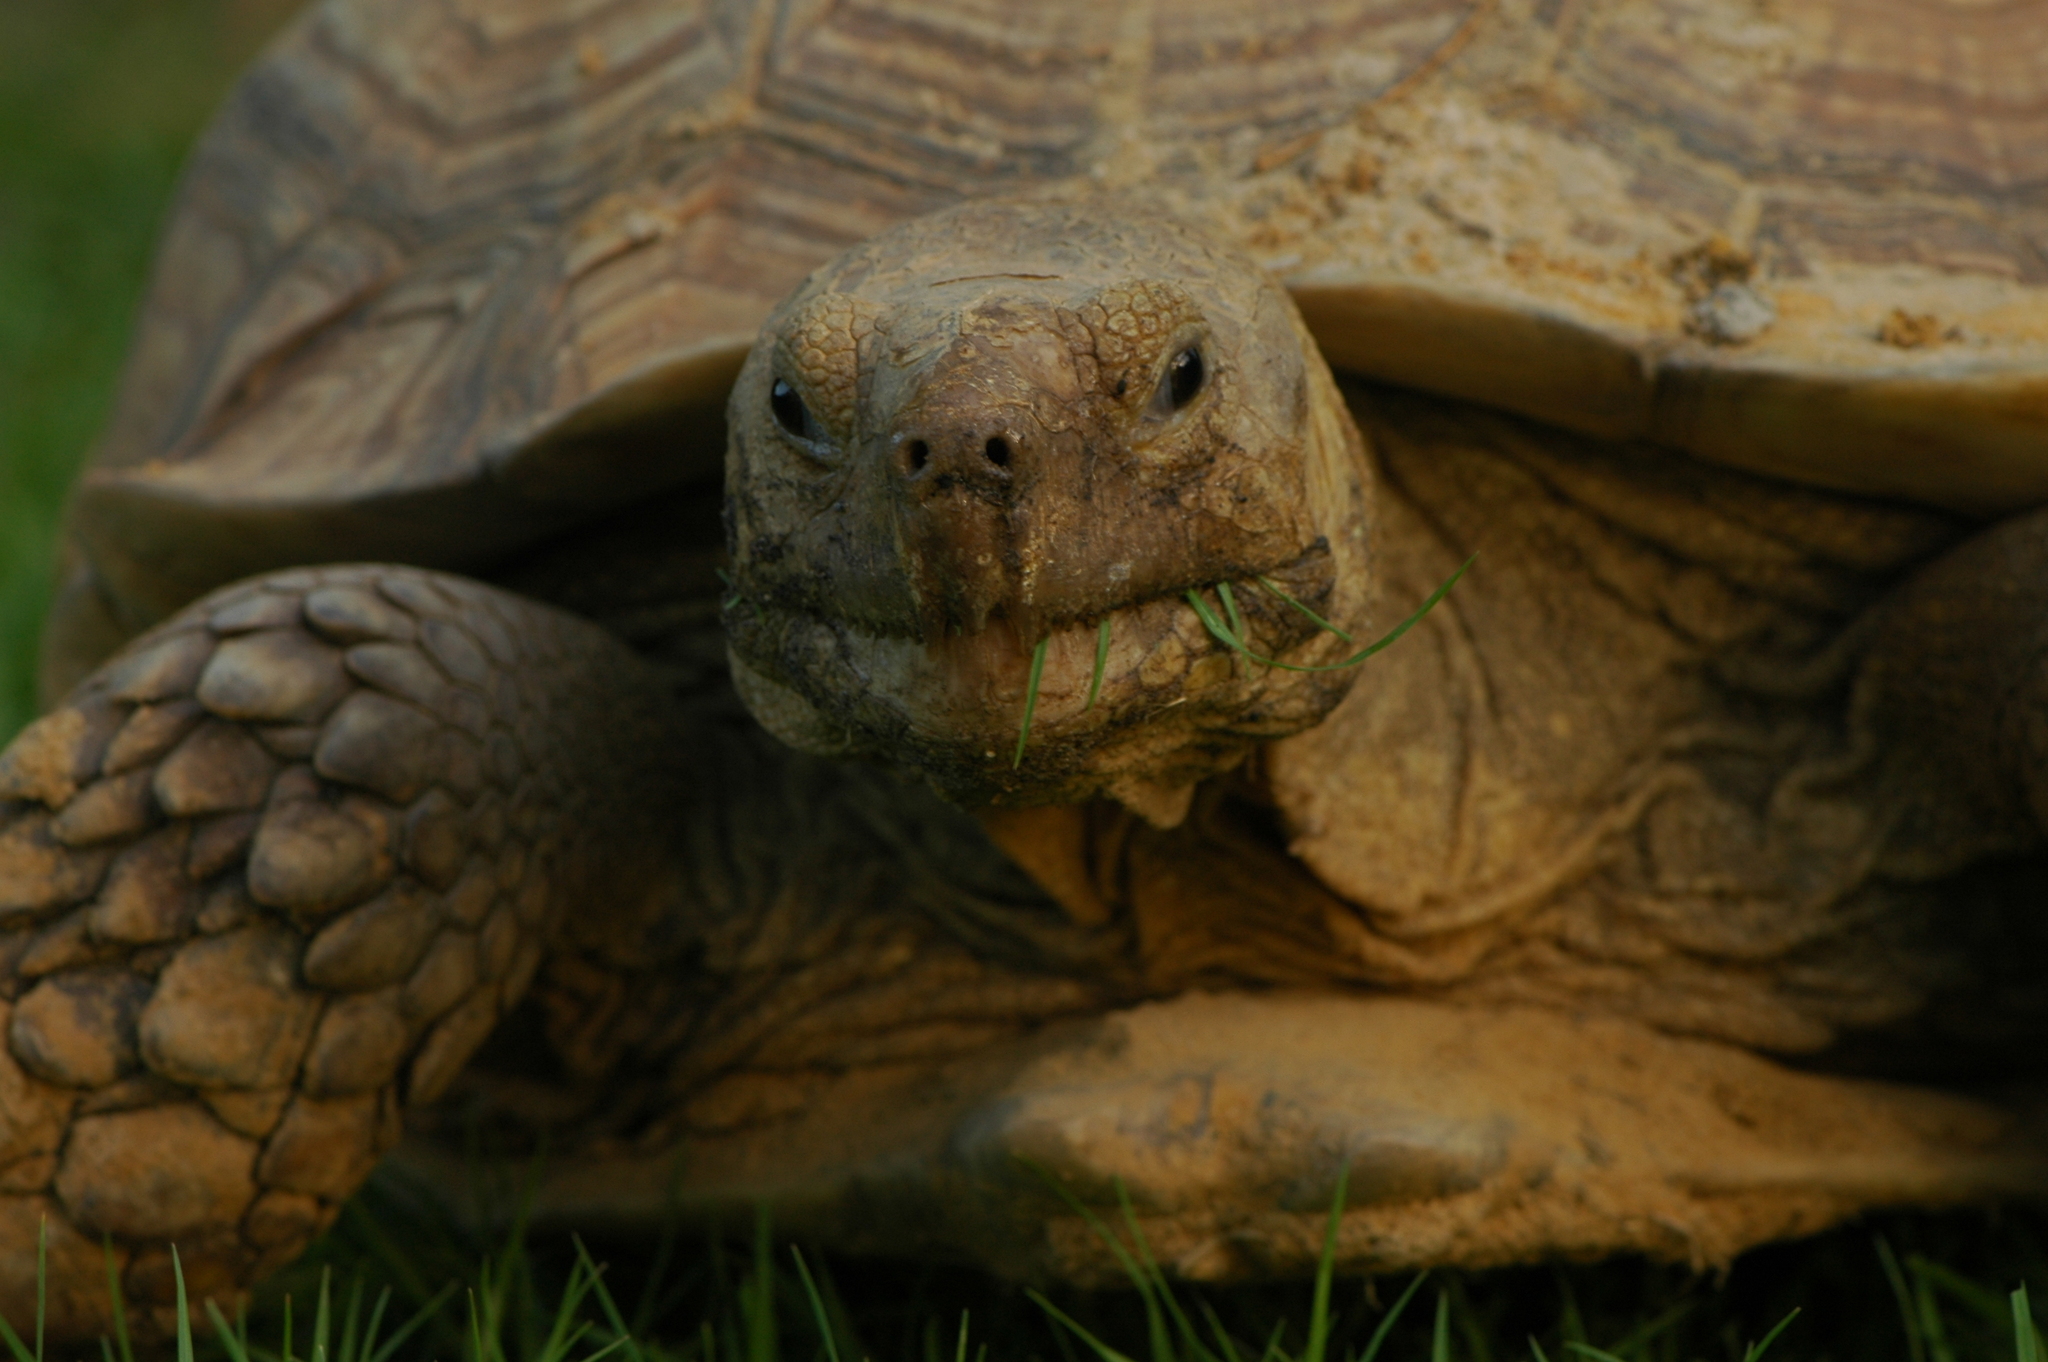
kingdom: Animalia
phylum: Chordata
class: Testudines
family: Testudinidae
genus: Centrochelys
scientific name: Centrochelys sulcata
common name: African spurred tortoise
